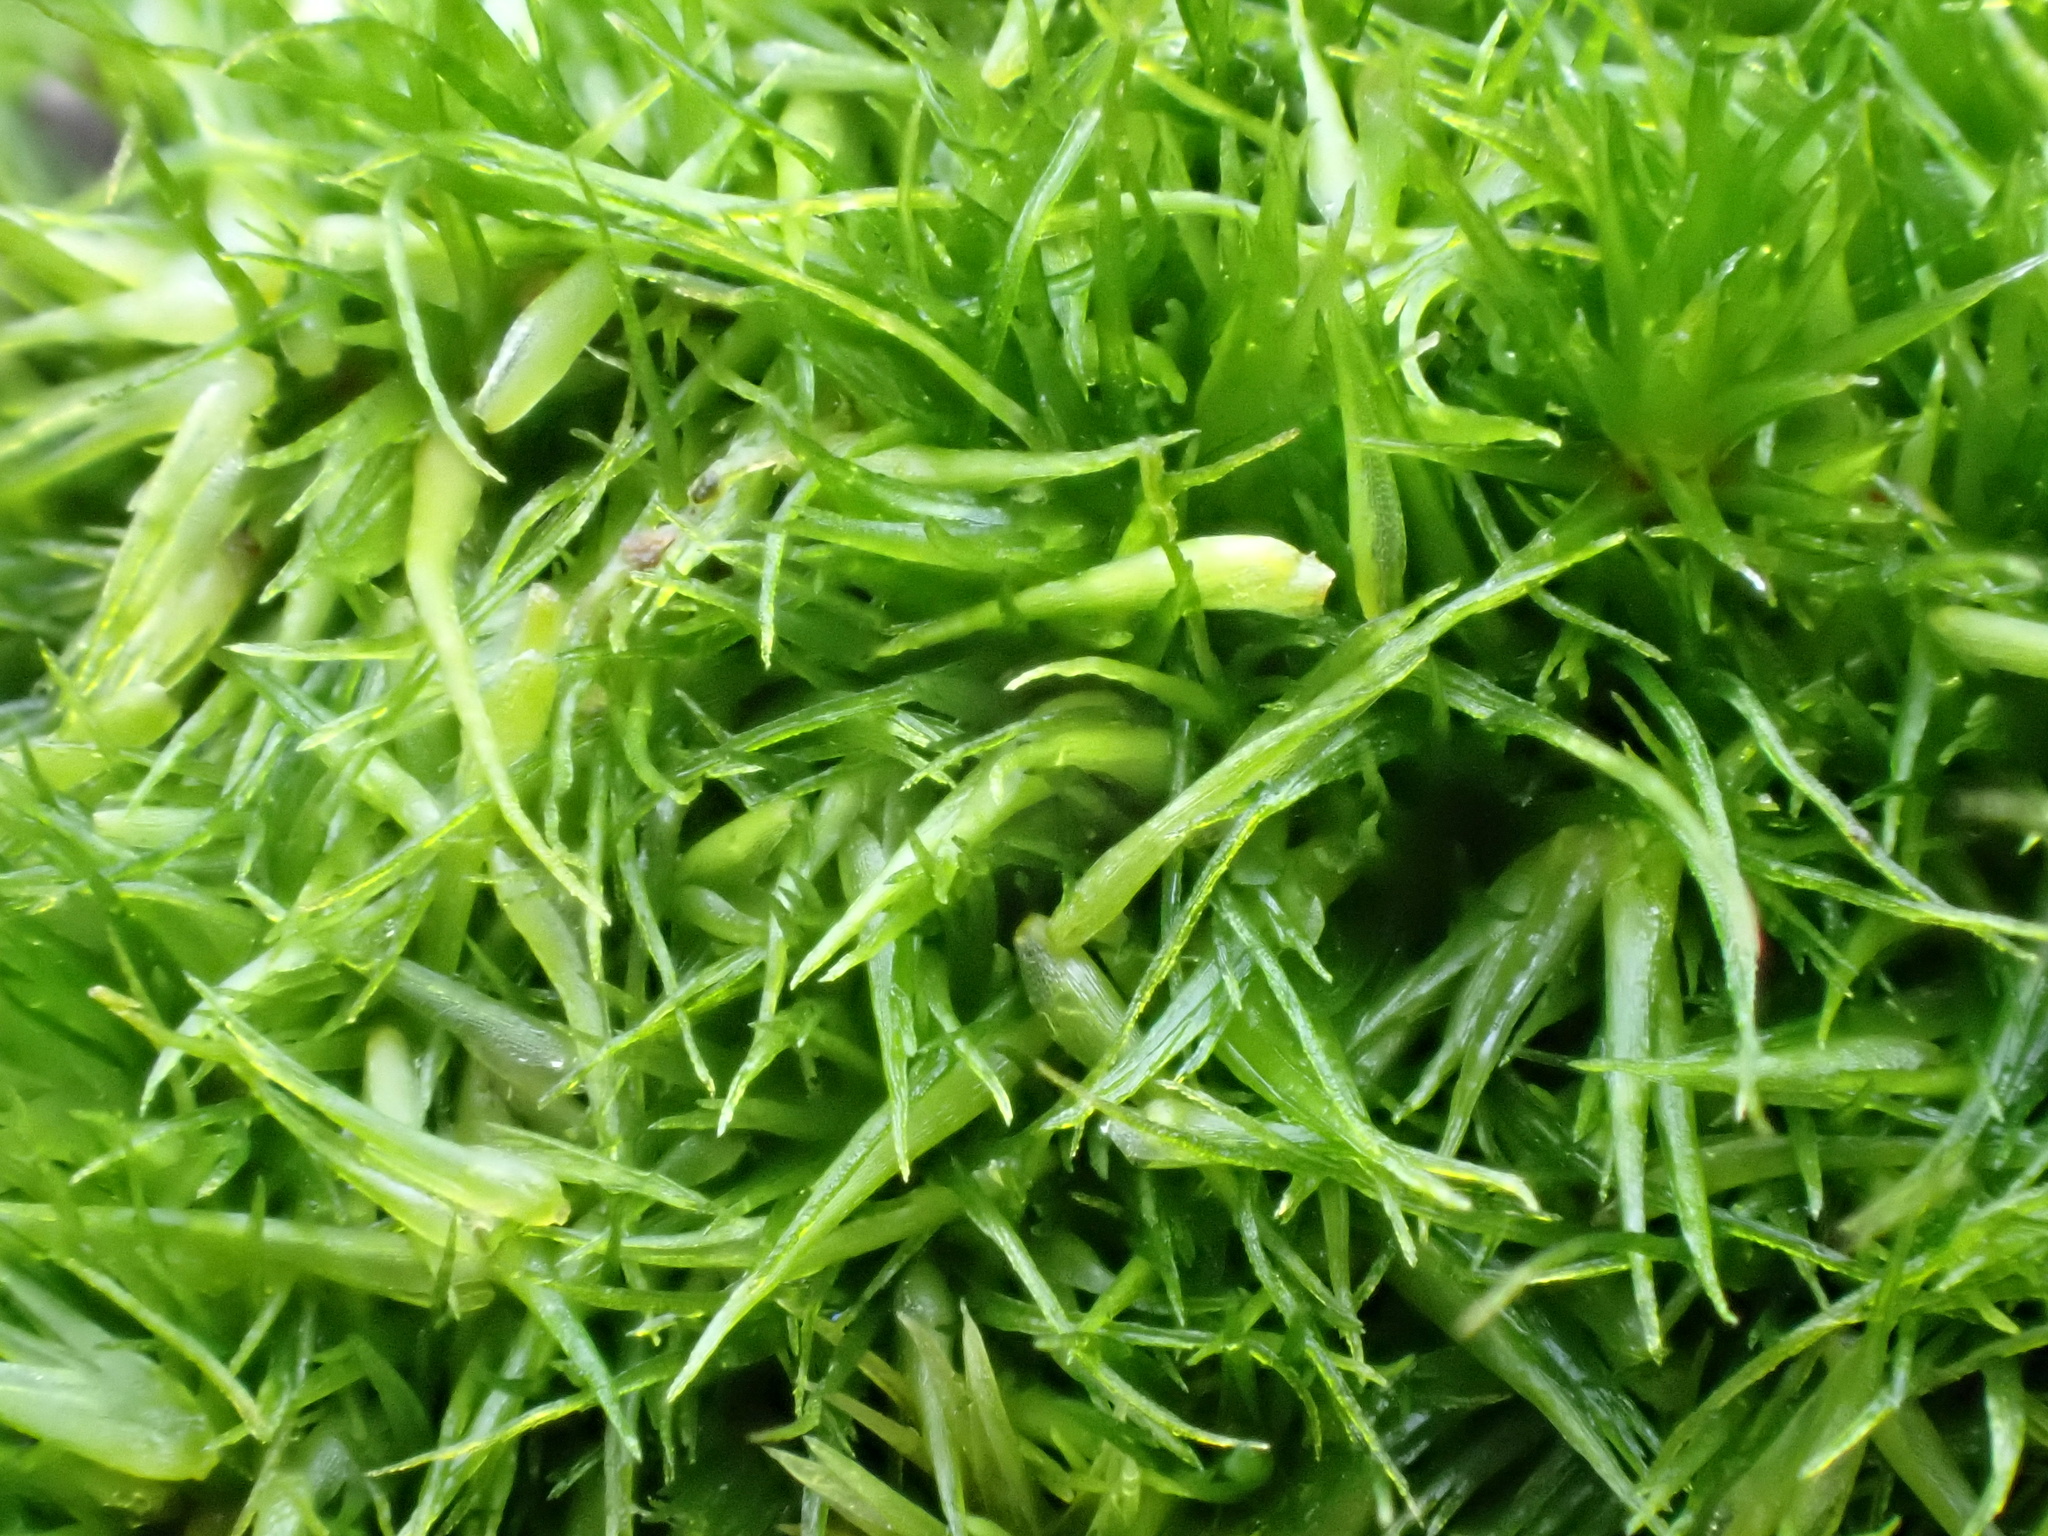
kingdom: Plantae
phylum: Bryophyta
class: Bryopsida
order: Dicranales
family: Leucobryaceae
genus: Campylopus
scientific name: Campylopus pyriformis
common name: Dwarf swan-neck moss
